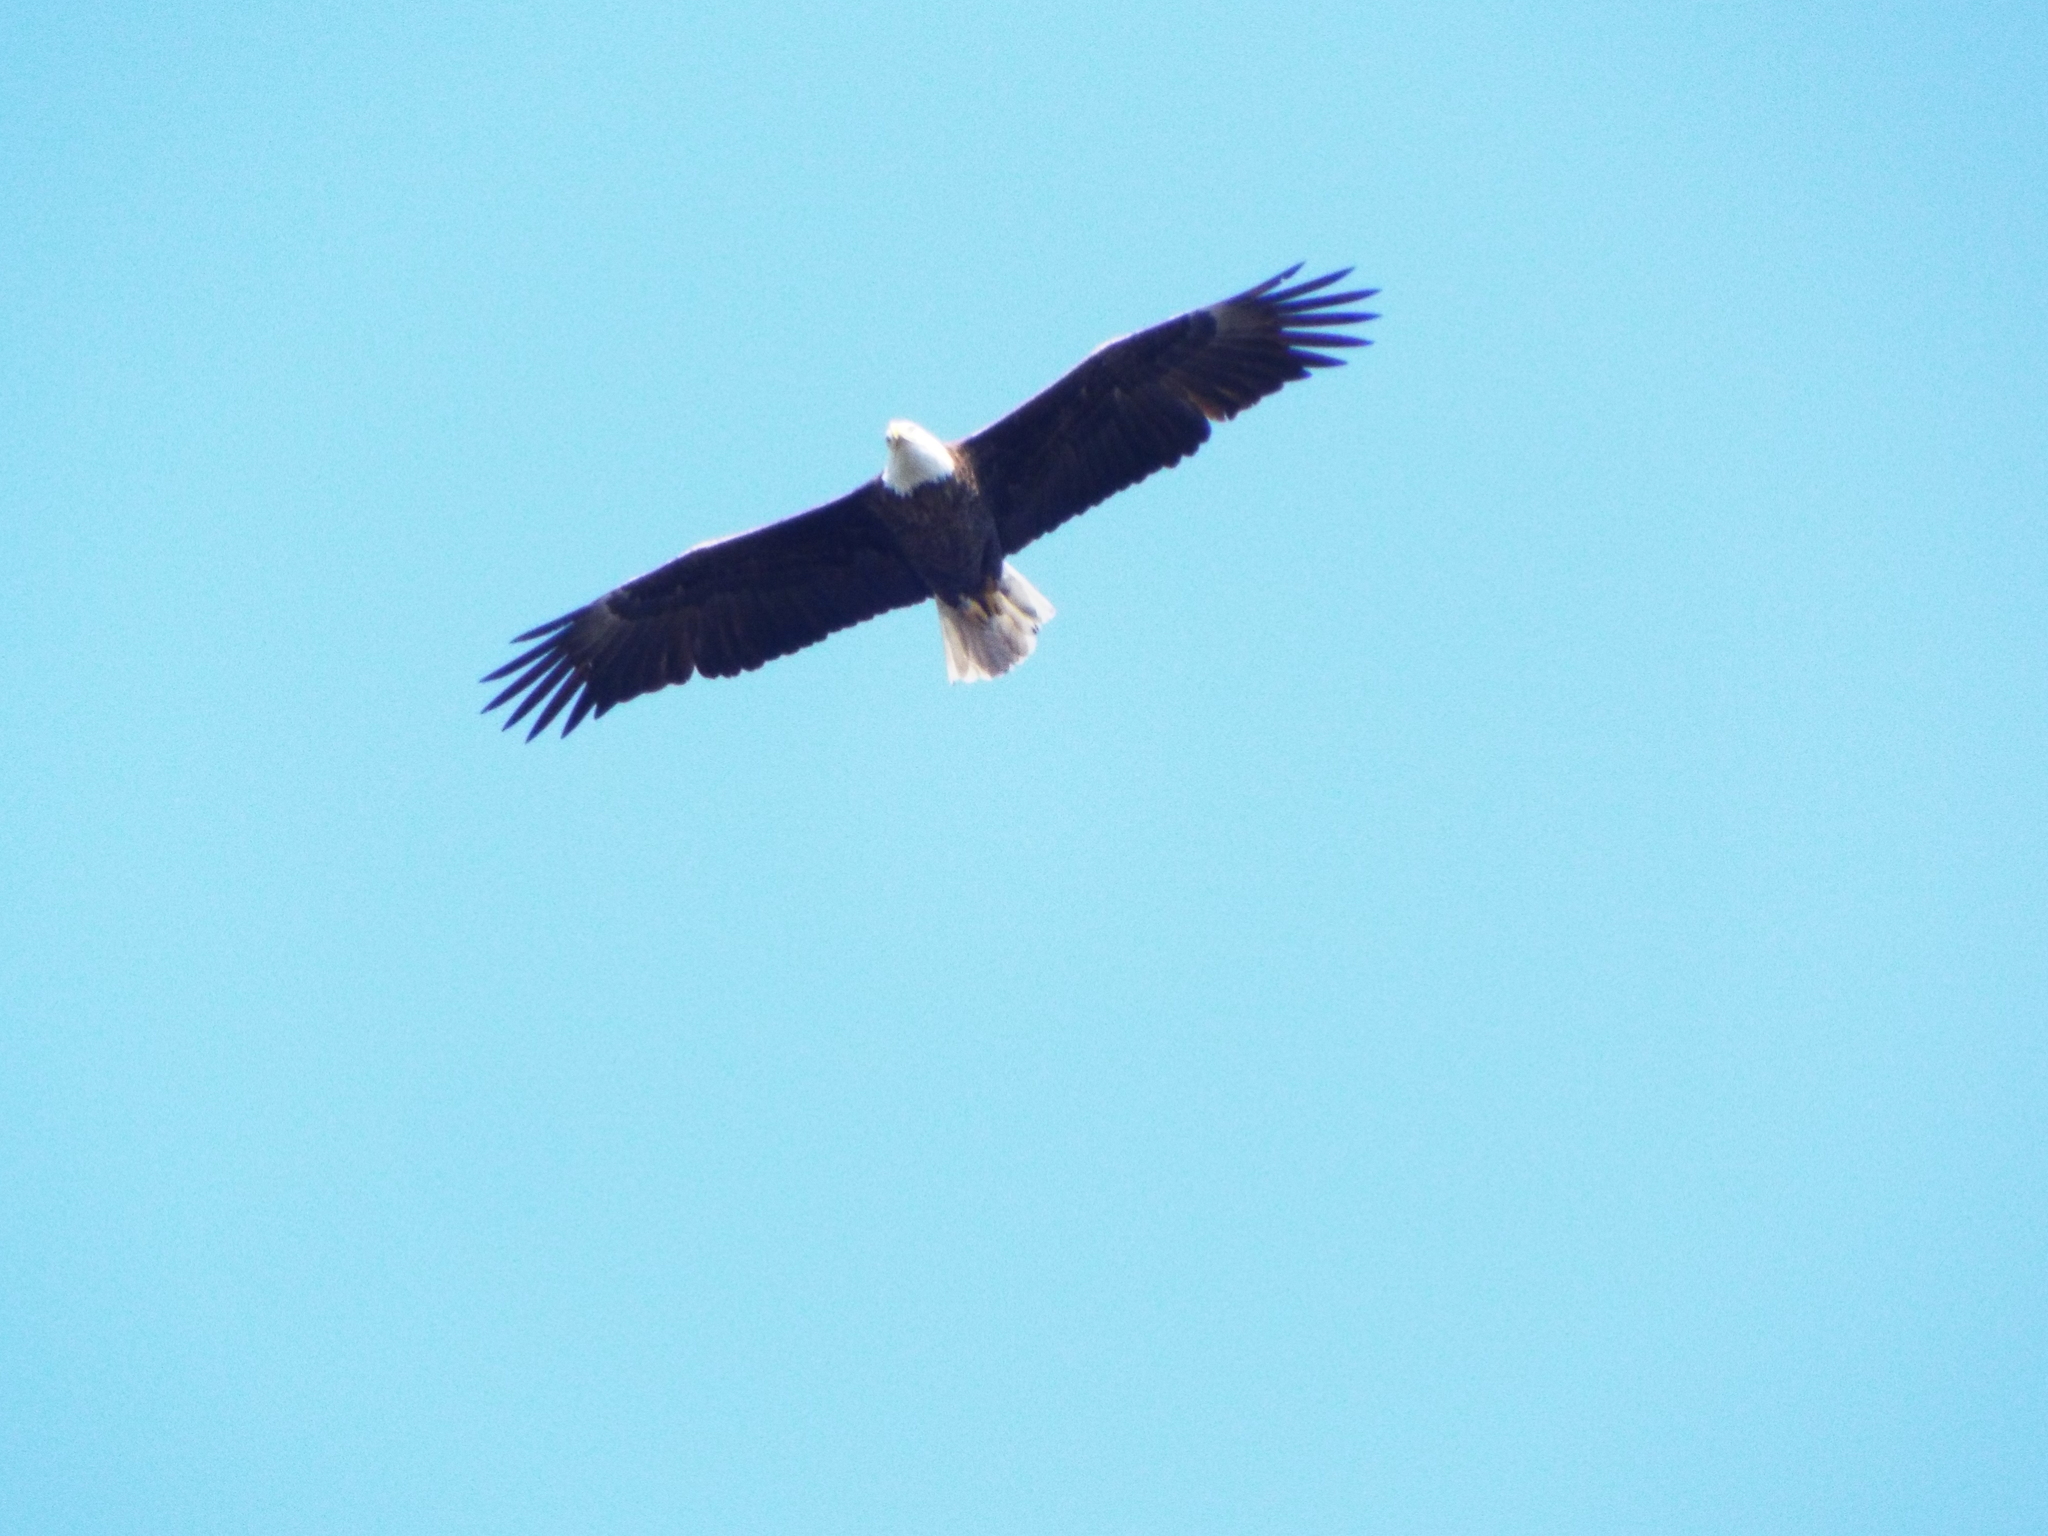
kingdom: Animalia
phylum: Chordata
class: Aves
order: Accipitriformes
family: Accipitridae
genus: Haliaeetus
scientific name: Haliaeetus leucocephalus
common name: Bald eagle
